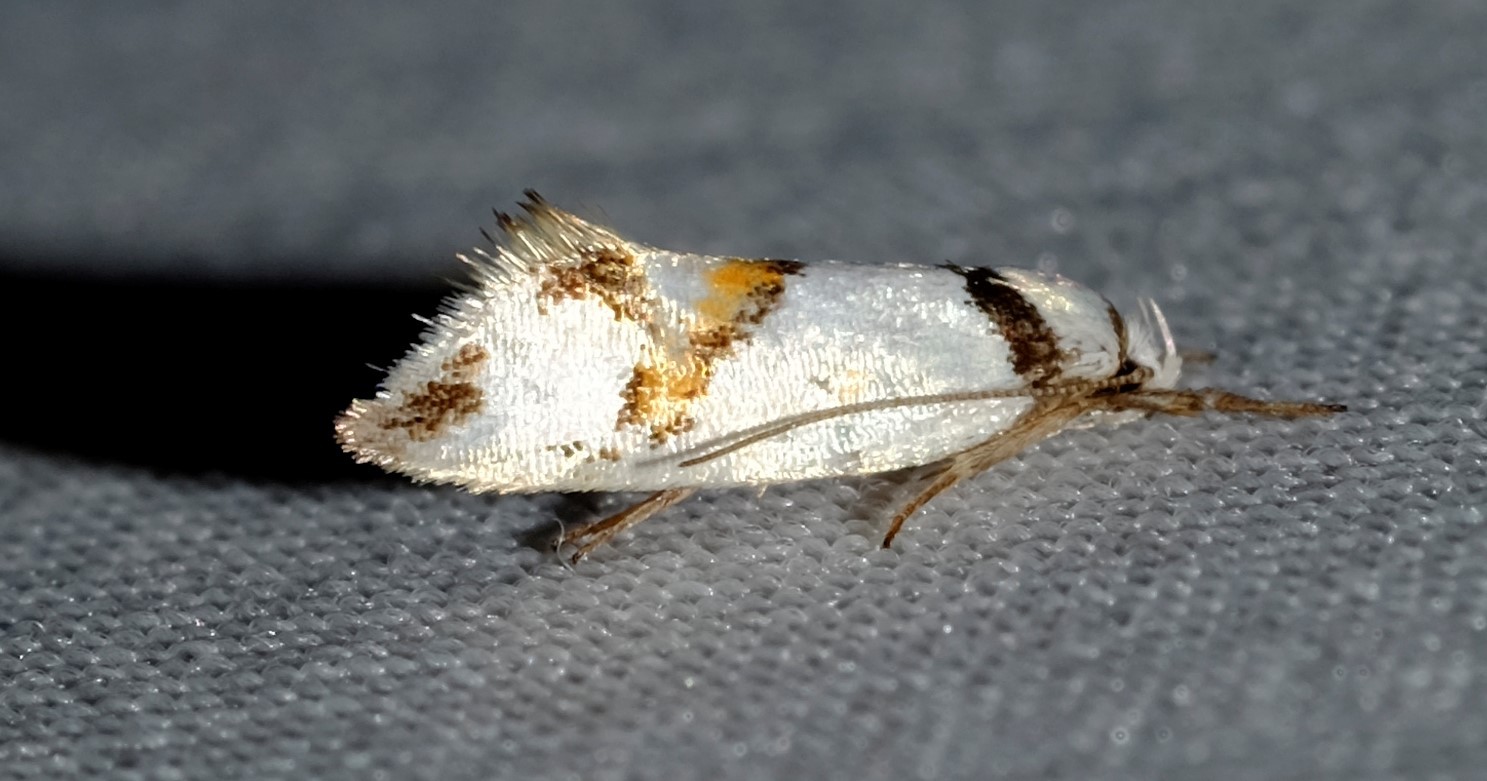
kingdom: Animalia
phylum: Arthropoda
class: Insecta
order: Lepidoptera
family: Oecophoridae
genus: Lepidotarsa
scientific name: Lepidotarsa habrodelta
